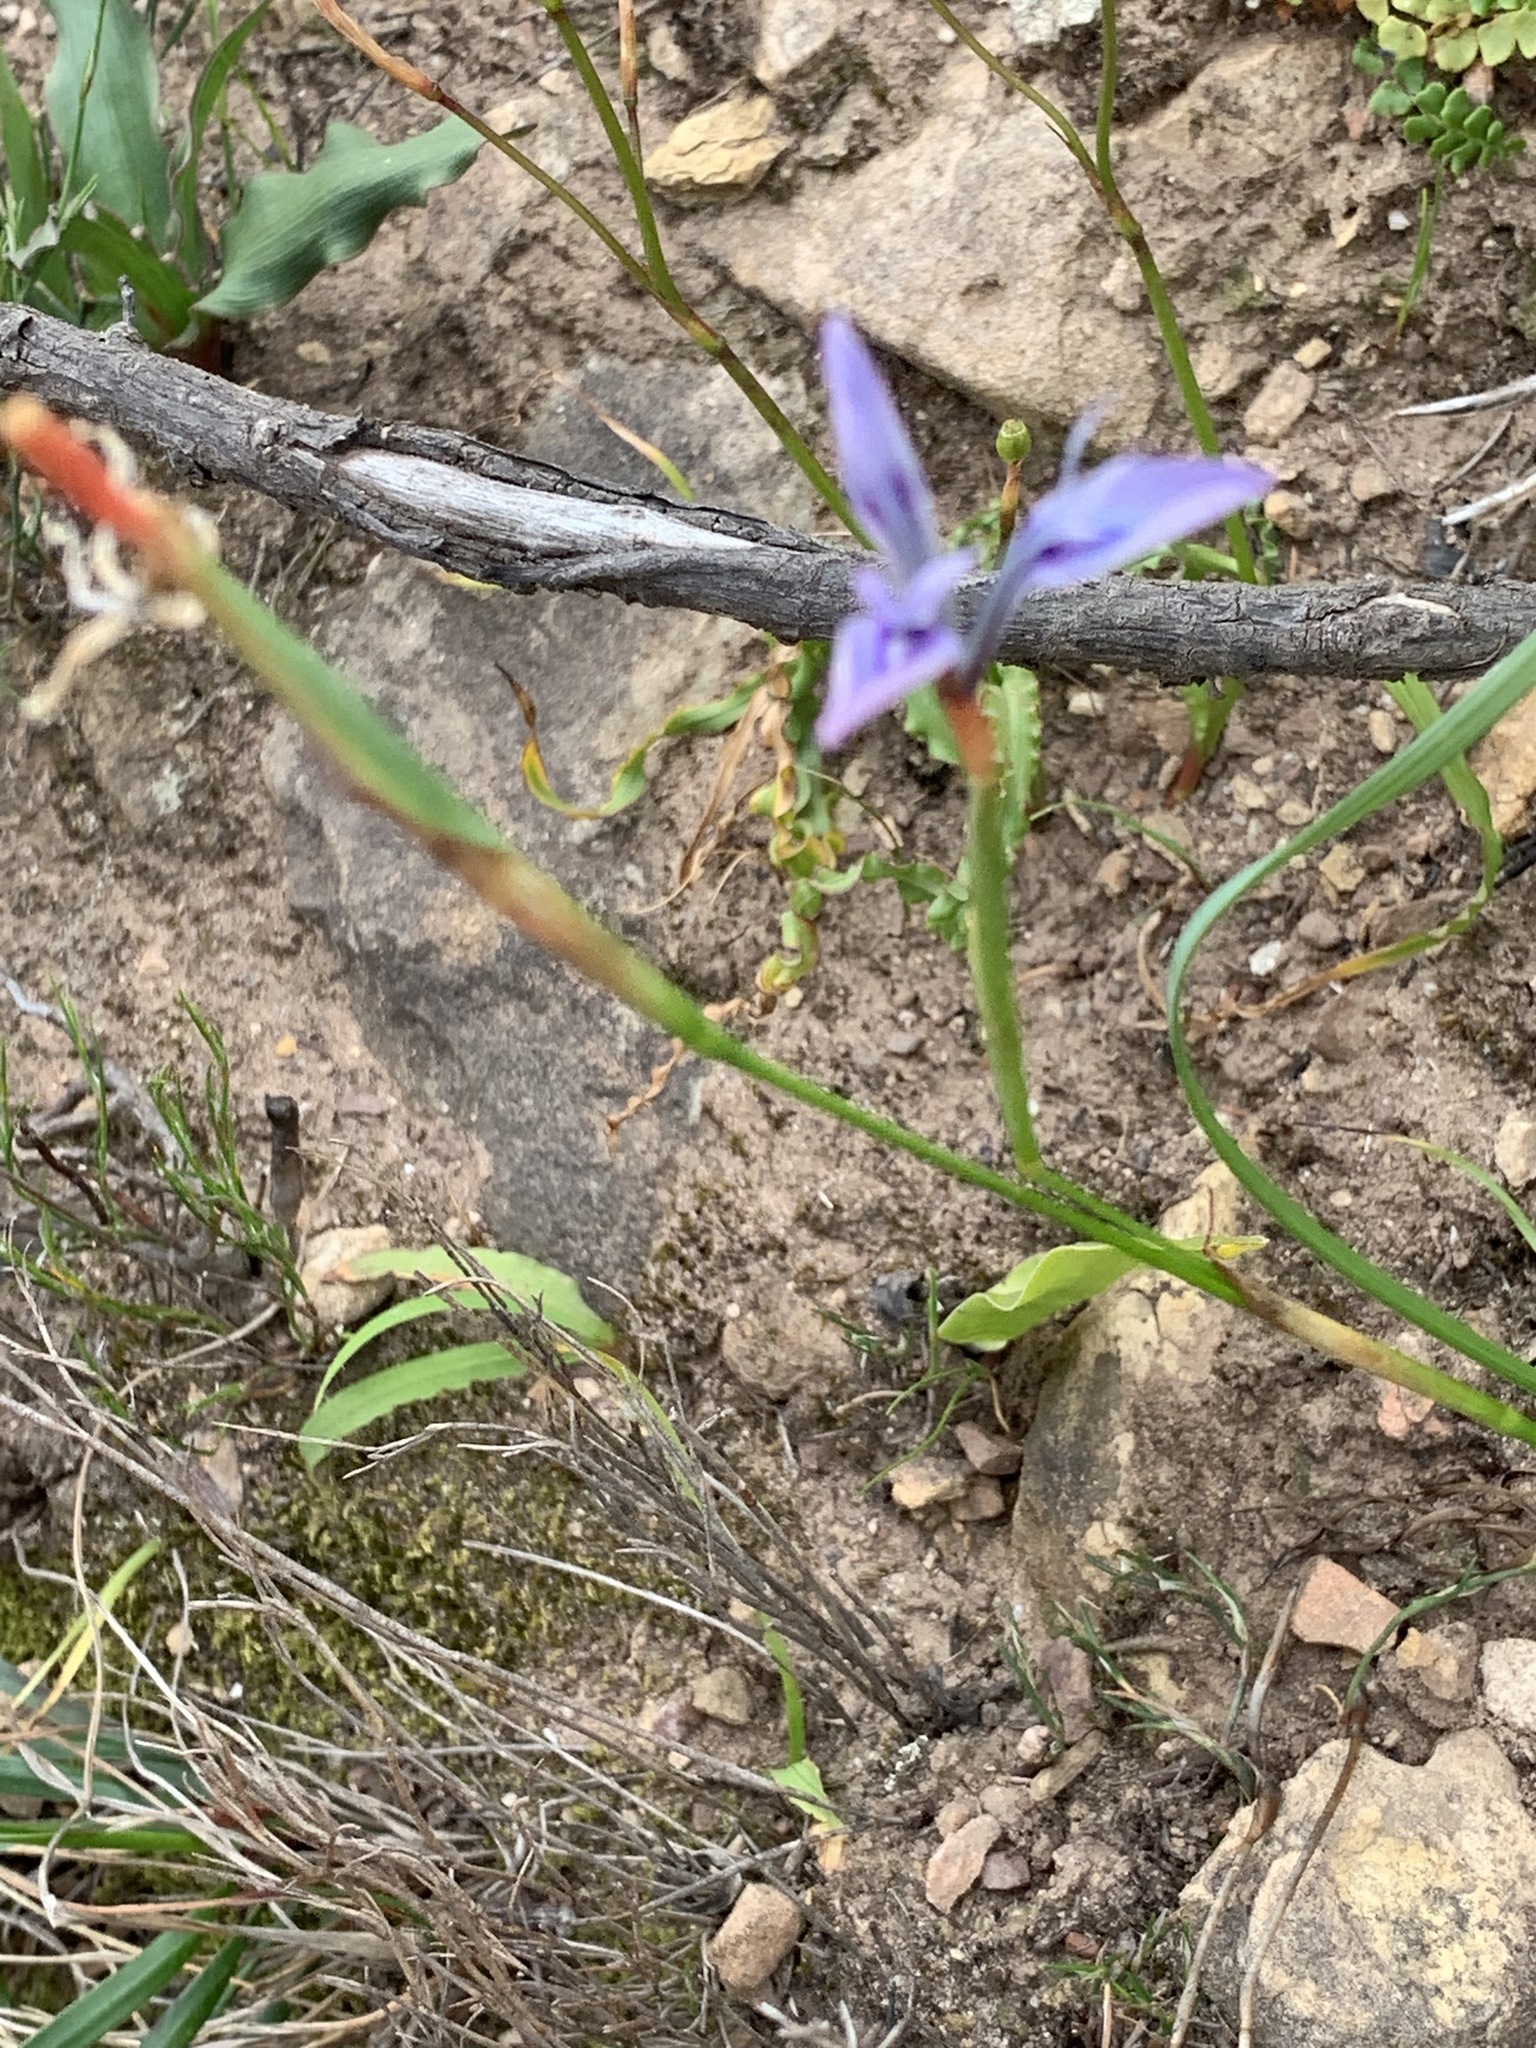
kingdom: Plantae
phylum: Tracheophyta
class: Liliopsida
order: Asparagales
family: Iridaceae
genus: Moraea
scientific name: Moraea tripetala
